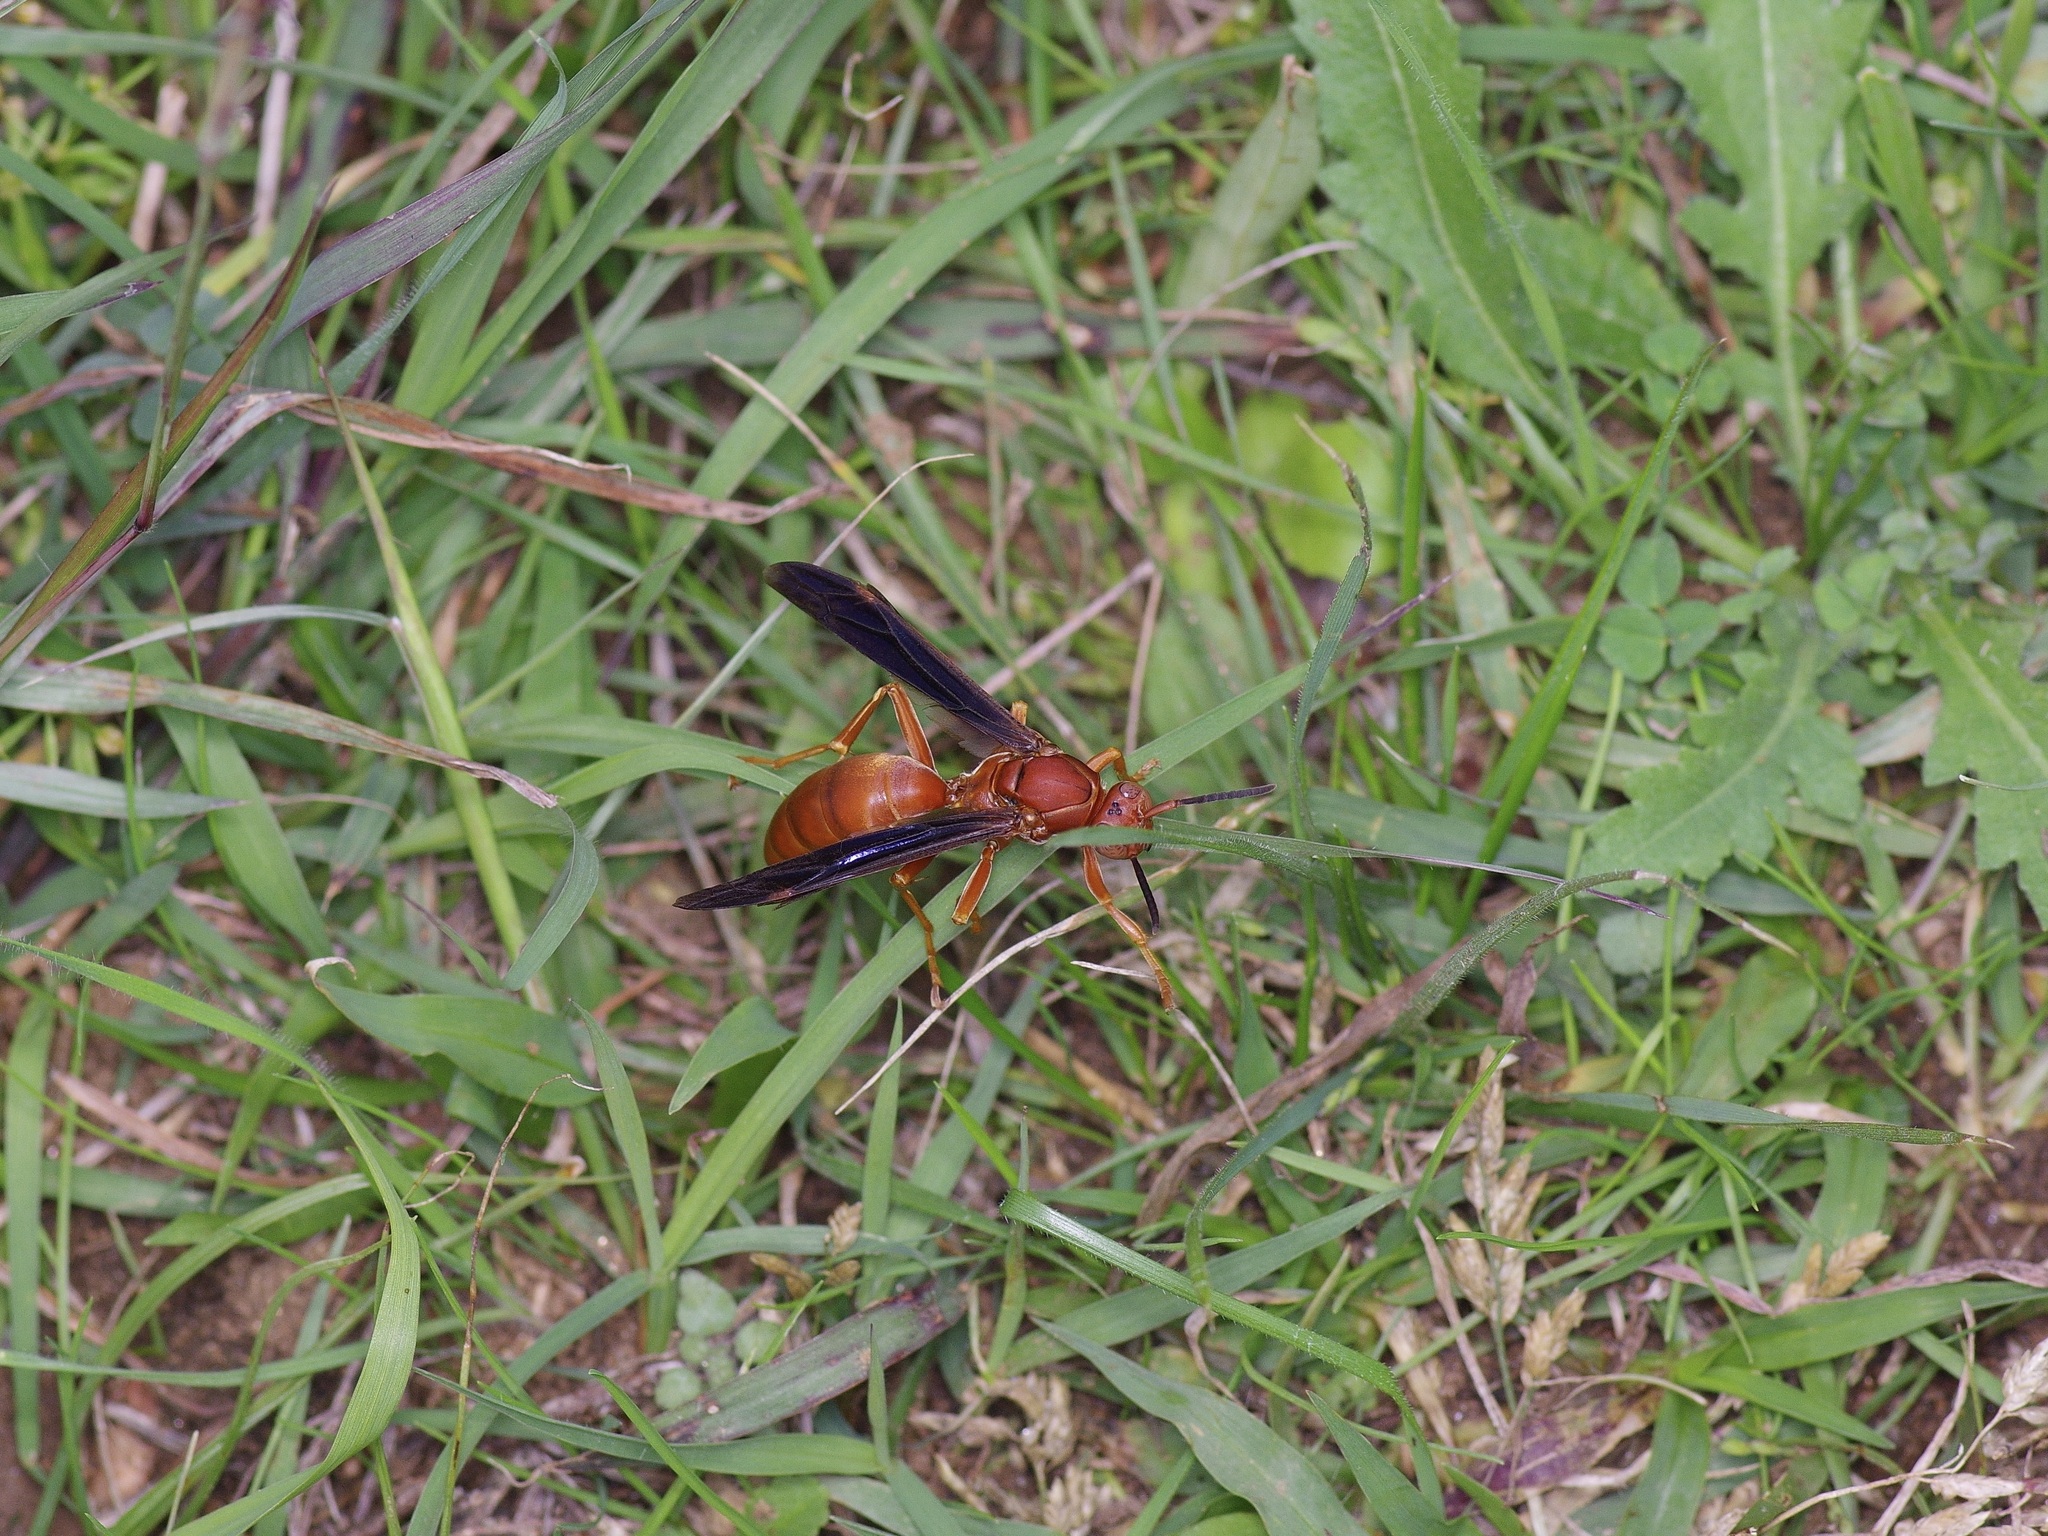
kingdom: Animalia
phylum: Arthropoda
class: Insecta
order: Hymenoptera
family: Vespidae
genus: Fuscopolistes
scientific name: Fuscopolistes
